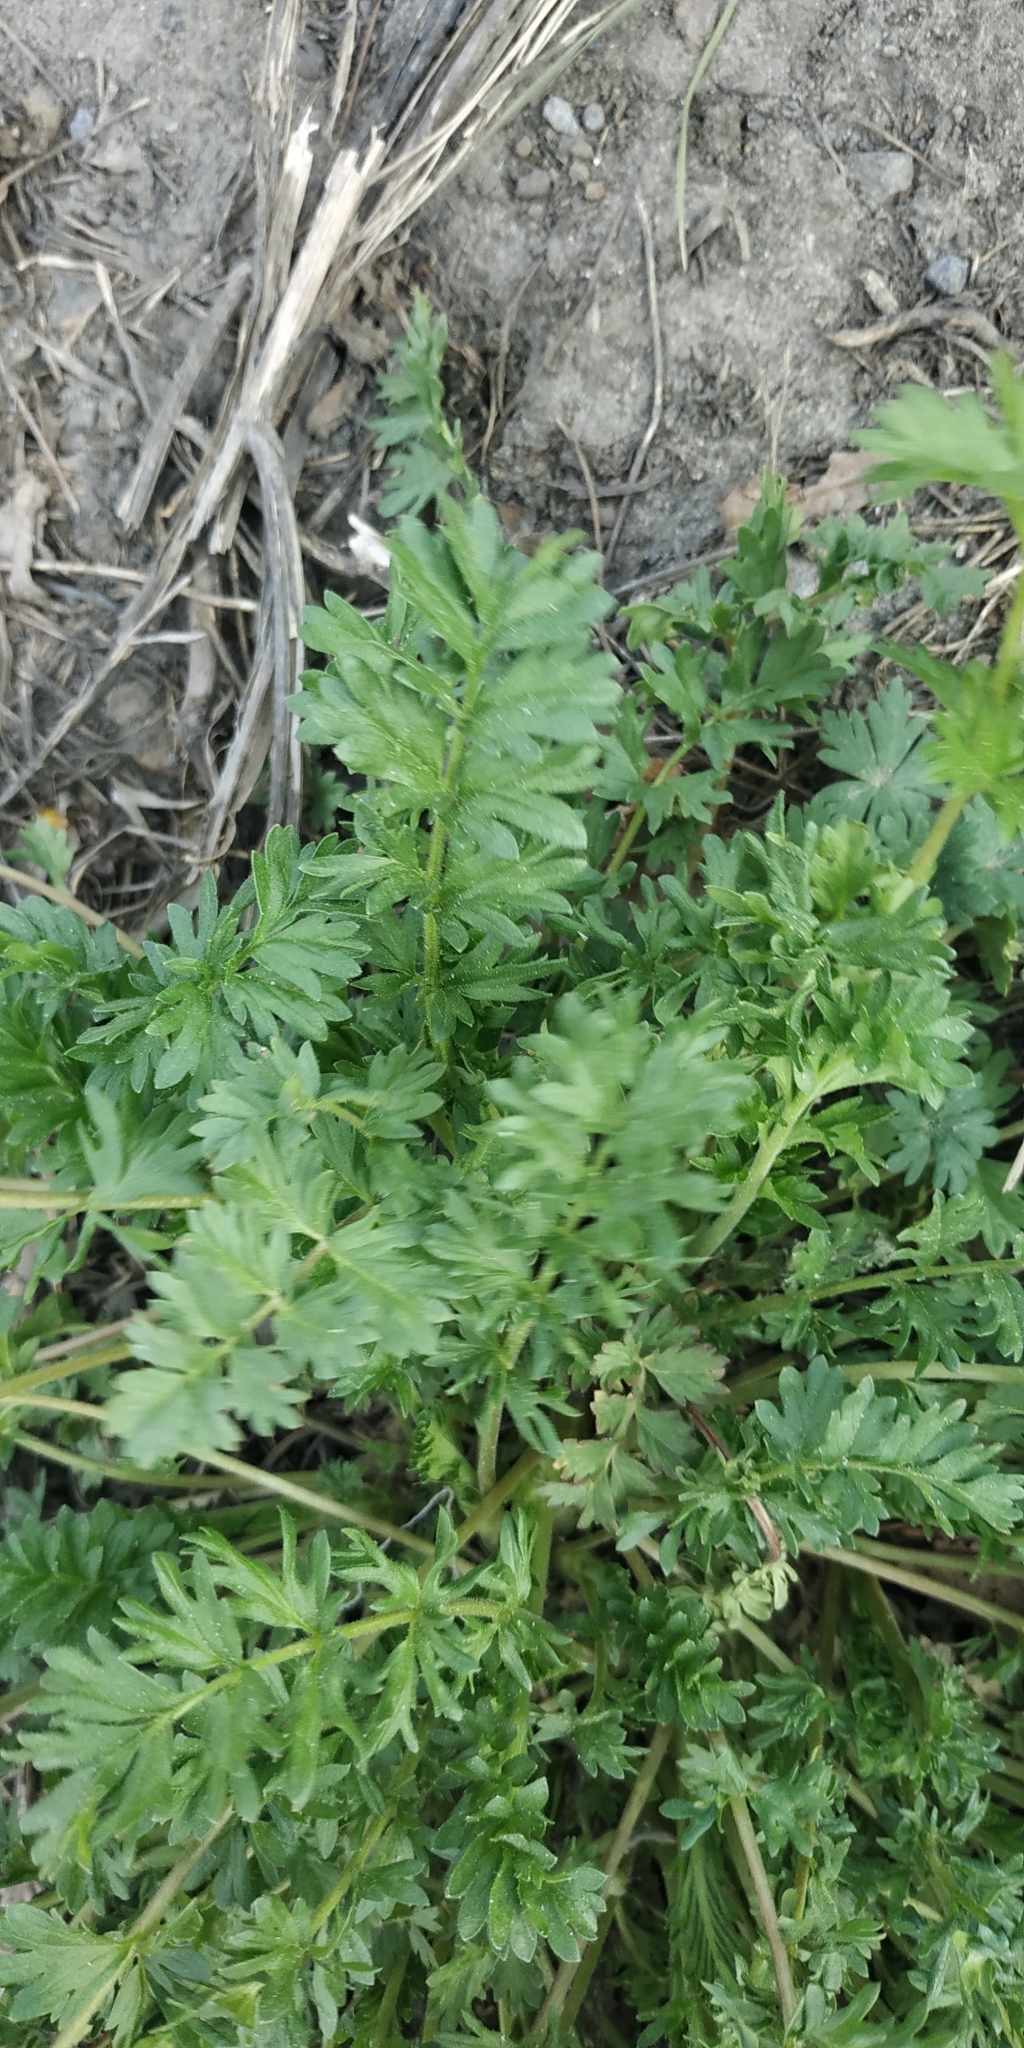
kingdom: Plantae
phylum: Tracheophyta
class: Magnoliopsida
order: Rosales
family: Rosaceae
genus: Potentilla
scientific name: Potentilla supina
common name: Prostrate cinquefoil
